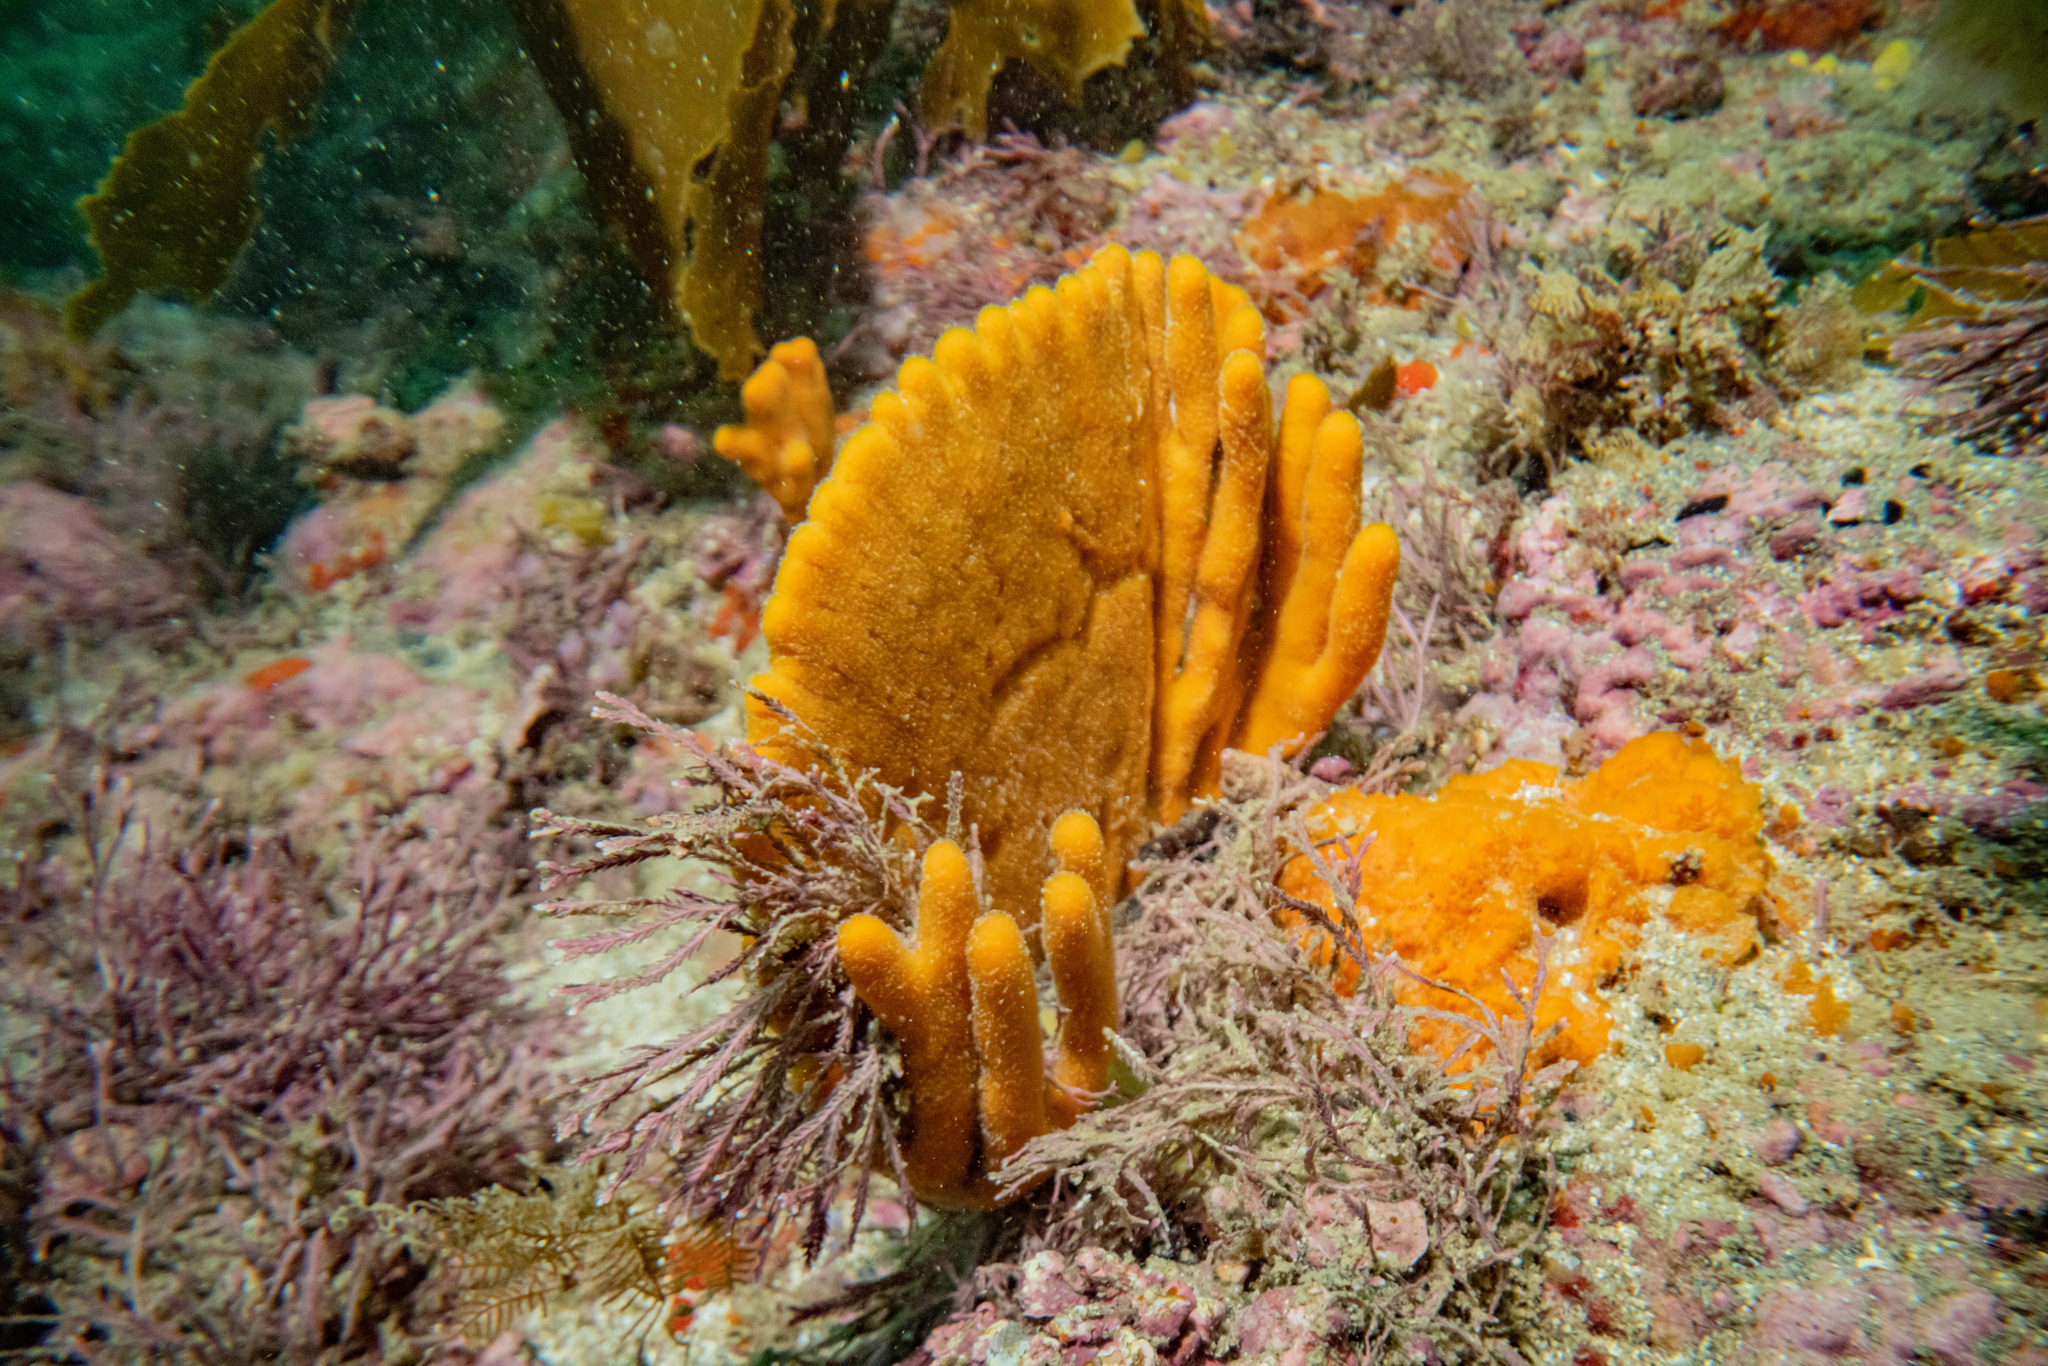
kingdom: Animalia
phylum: Porifera
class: Demospongiae
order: Axinellida
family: Raspailiidae
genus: Raspailia
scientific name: Raspailia topsenti
